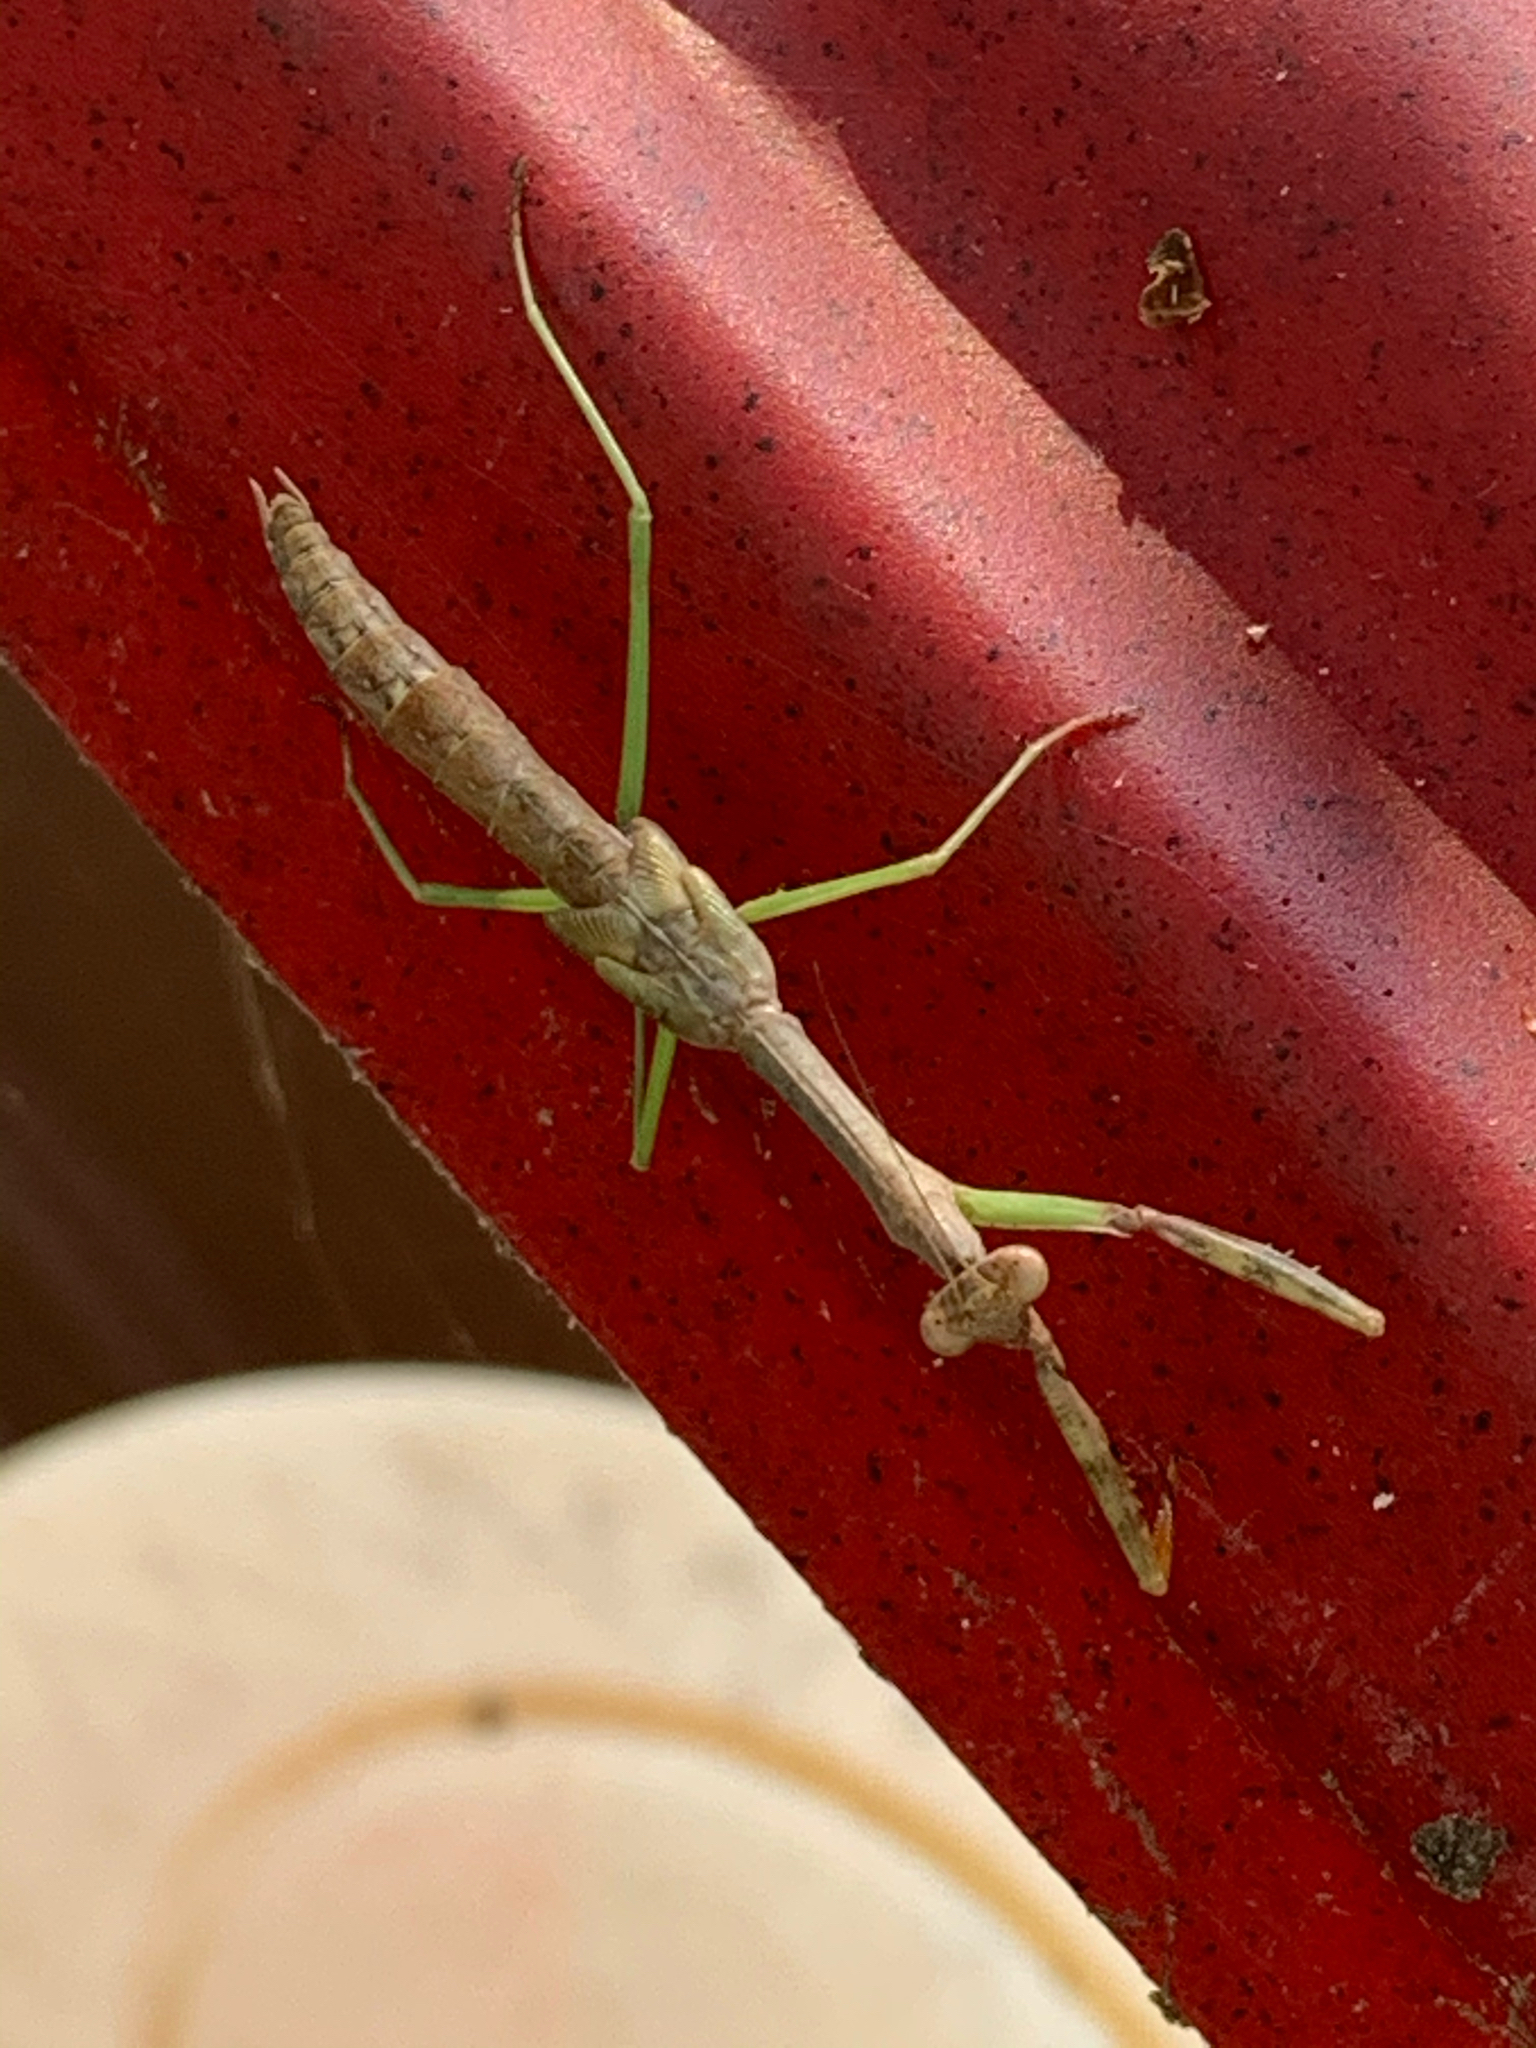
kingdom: Animalia
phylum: Arthropoda
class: Insecta
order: Mantodea
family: Mantidae
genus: Stagmomantis
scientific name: Stagmomantis carolina
